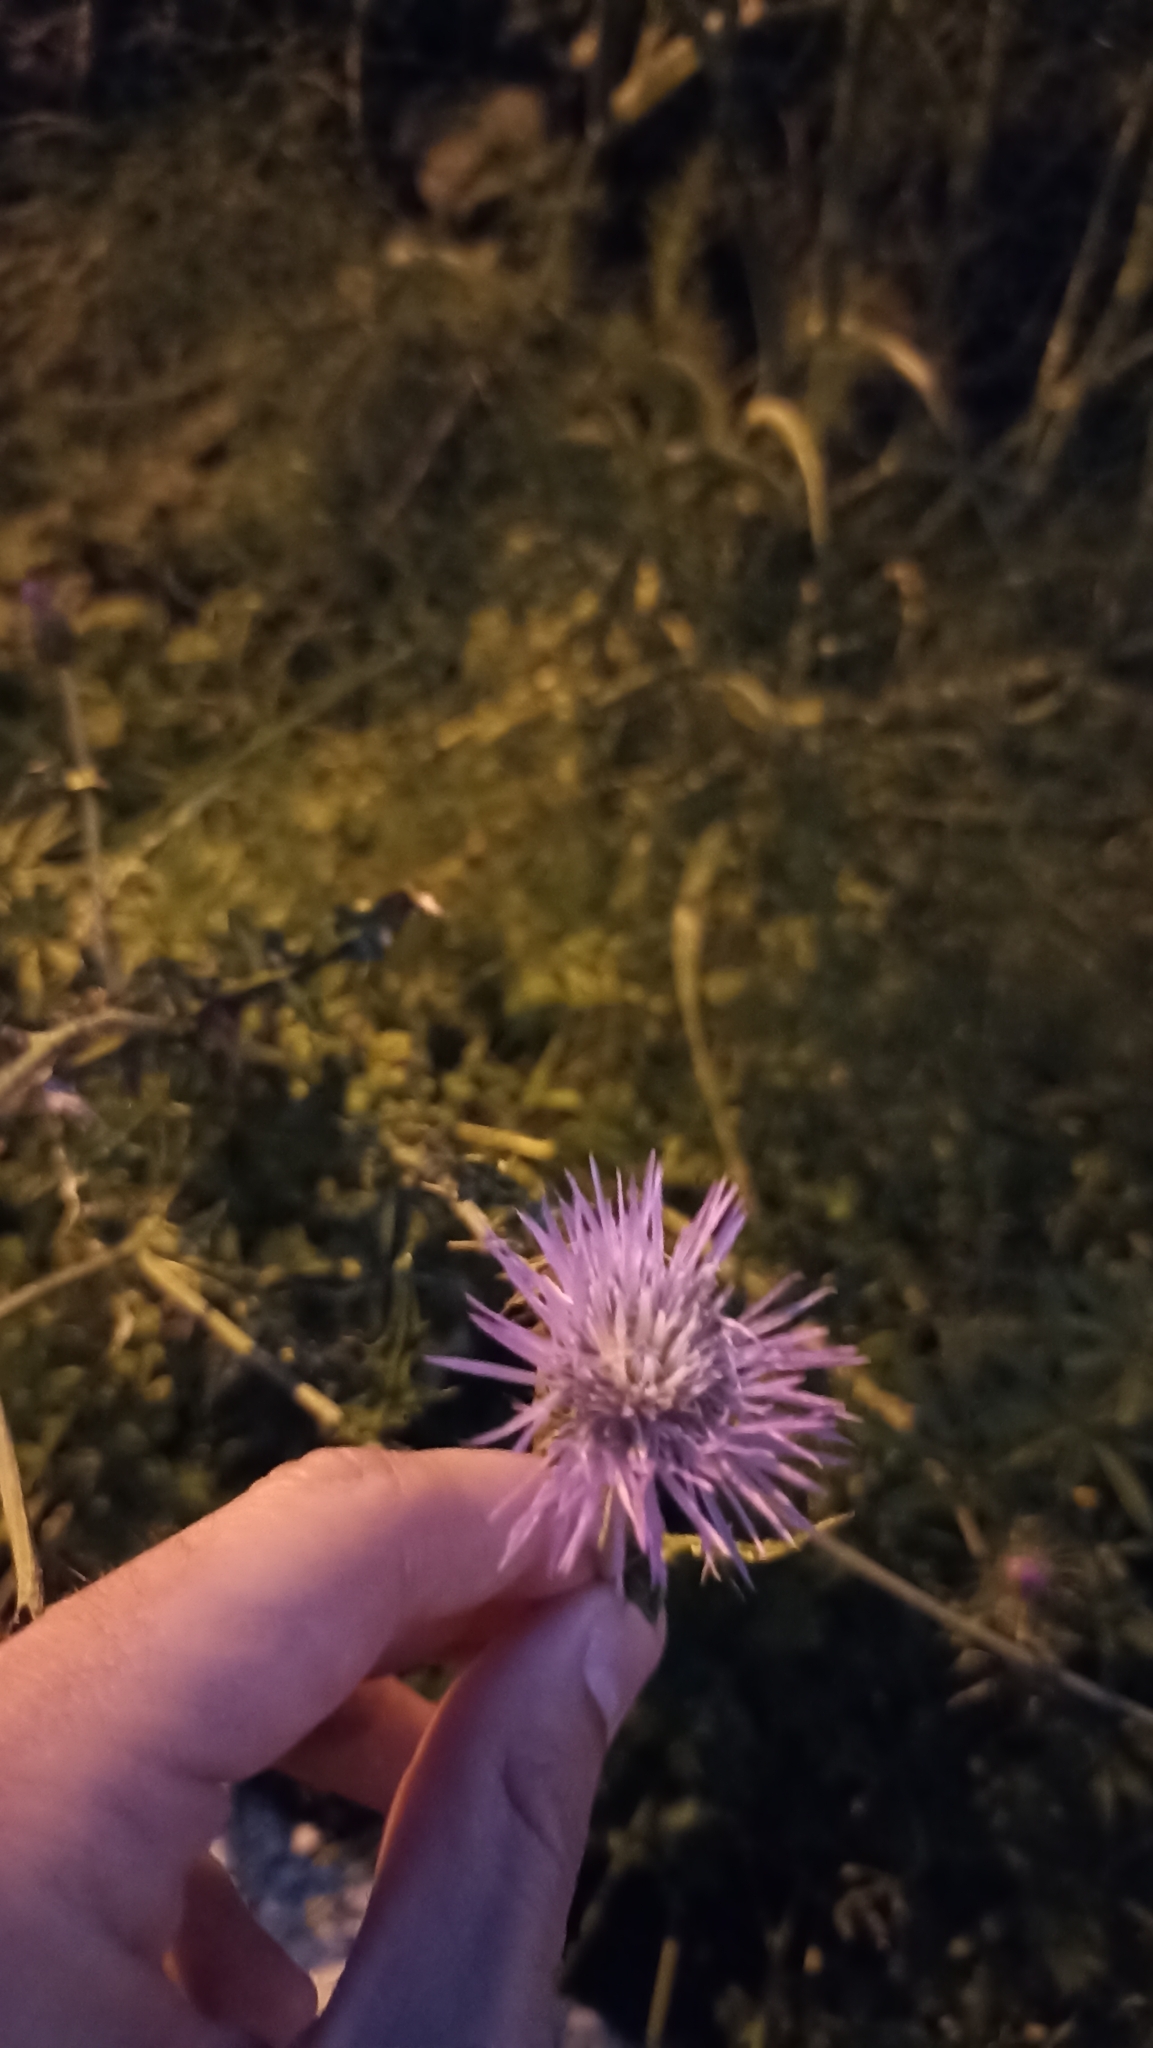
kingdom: Plantae
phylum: Tracheophyta
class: Magnoliopsida
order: Asterales
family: Asteraceae
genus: Galactites
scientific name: Galactites tomentosa
